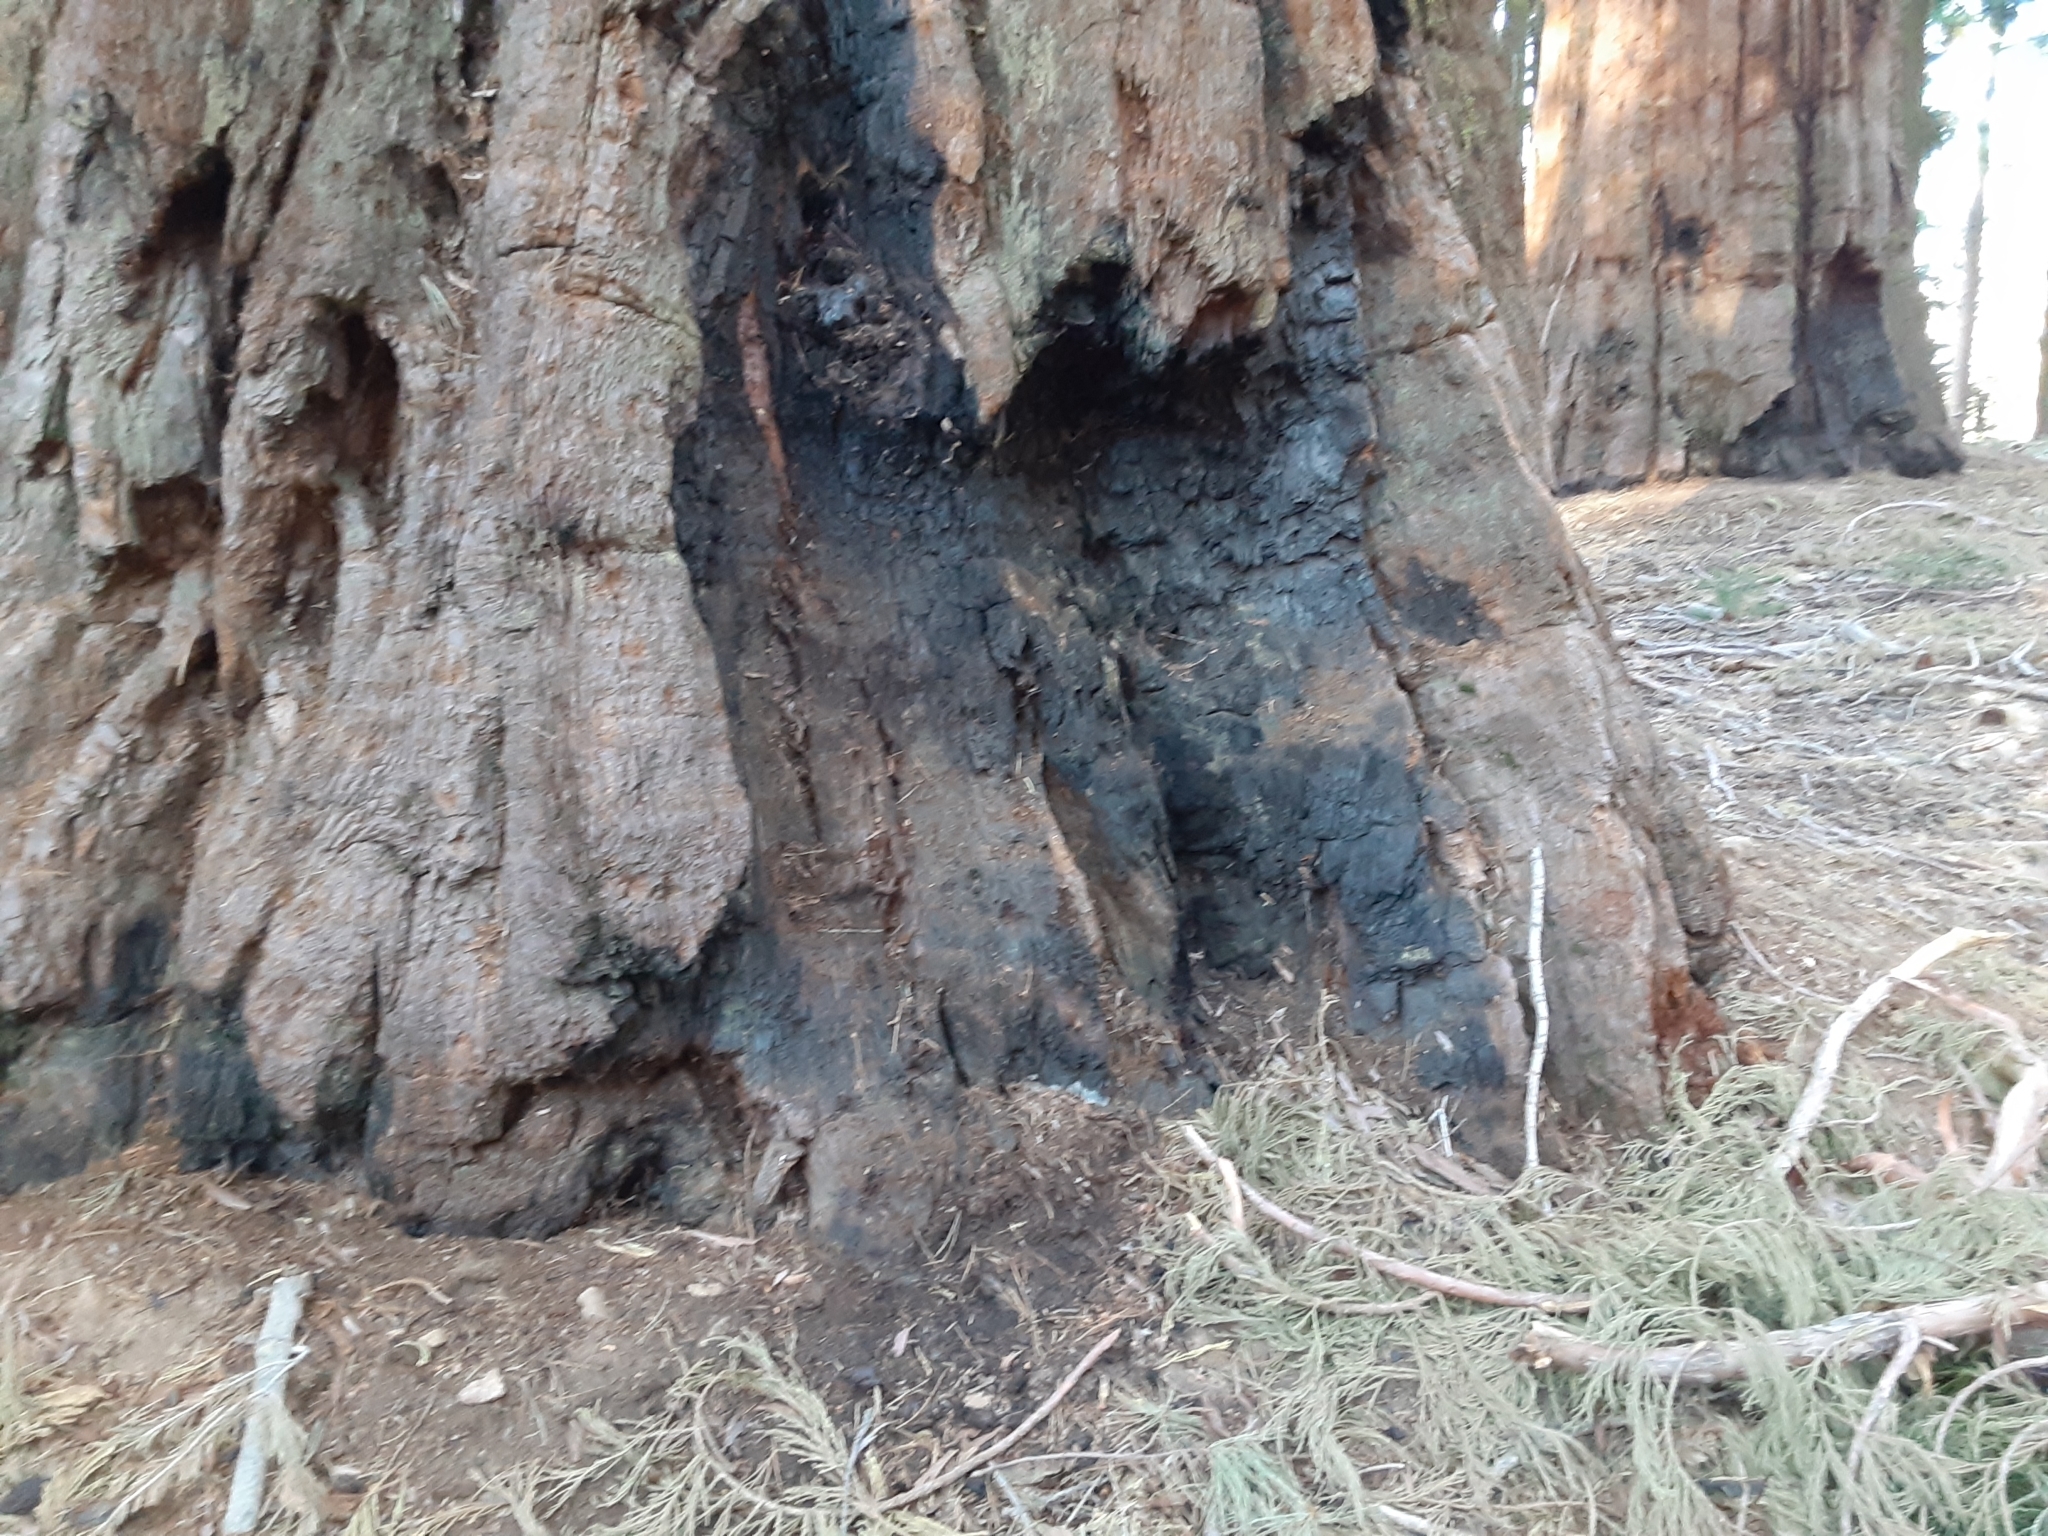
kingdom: Plantae
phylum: Tracheophyta
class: Pinopsida
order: Pinales
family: Cupressaceae
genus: Sequoiadendron
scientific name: Sequoiadendron giganteum
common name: Wellingtonia
